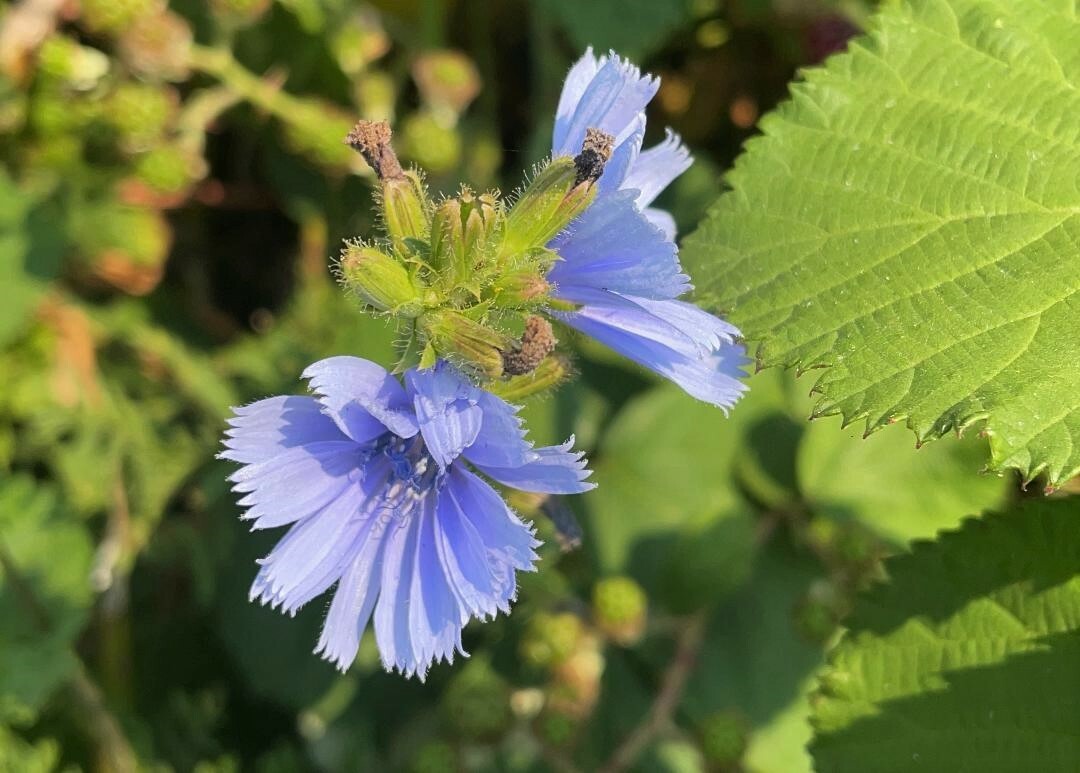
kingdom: Plantae
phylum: Tracheophyta
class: Magnoliopsida
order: Asterales
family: Asteraceae
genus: Cichorium
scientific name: Cichorium intybus
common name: Chicory
